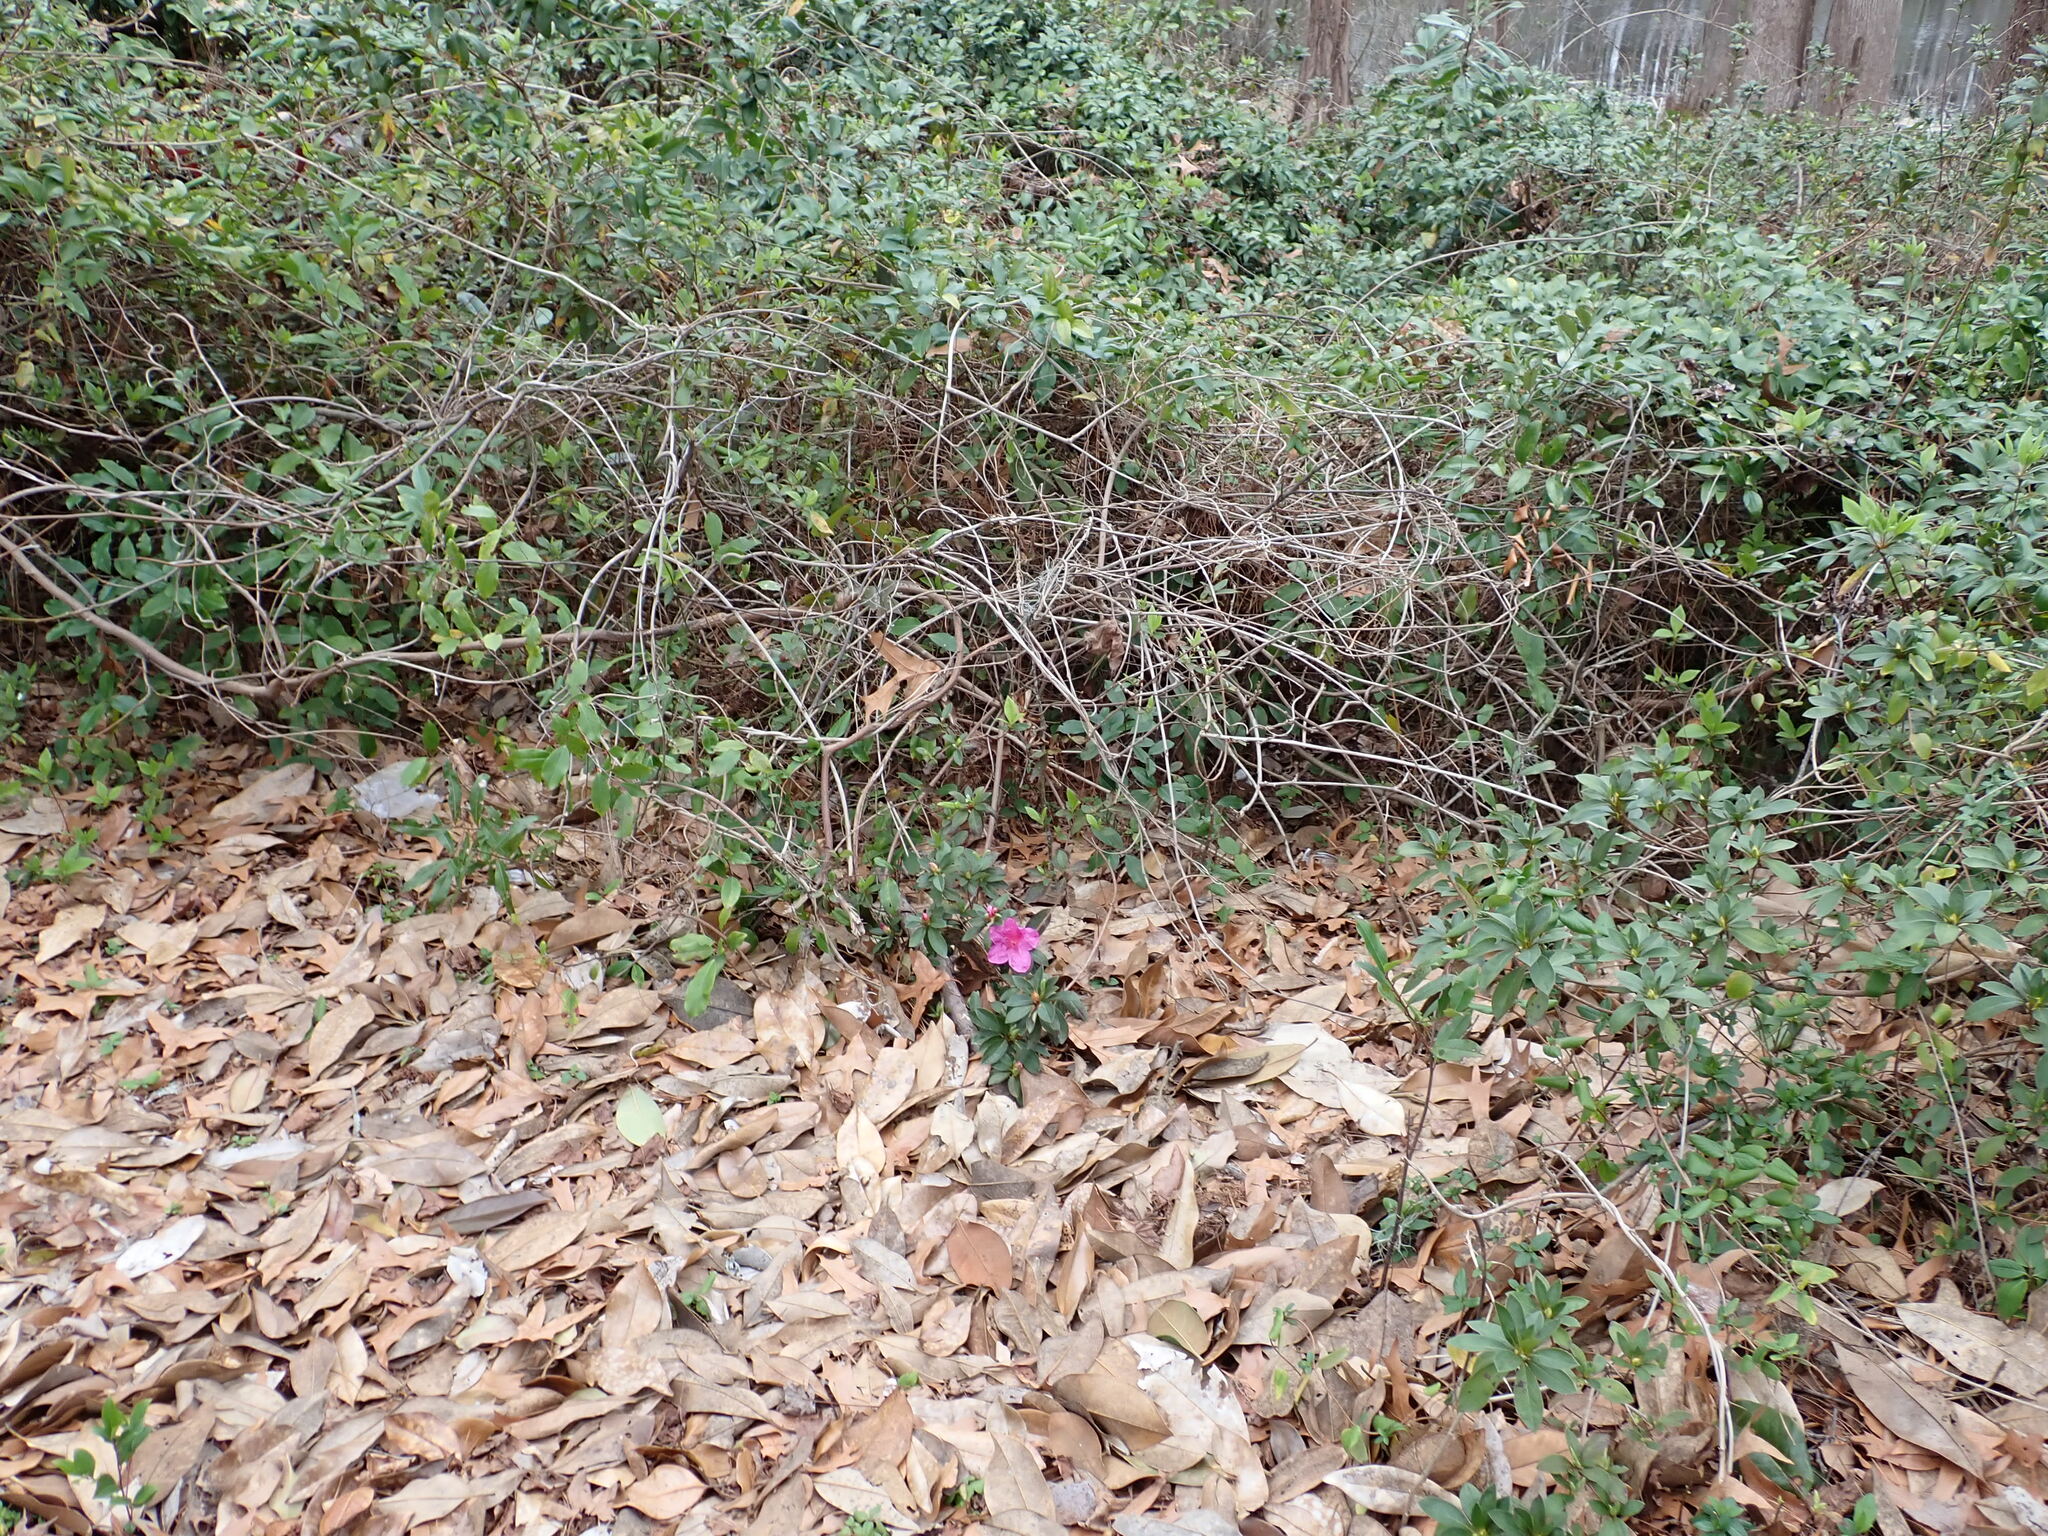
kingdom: Plantae
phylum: Tracheophyta
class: Magnoliopsida
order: Ericales
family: Ericaceae
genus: Rhododendron
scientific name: Rhododendron indicum
